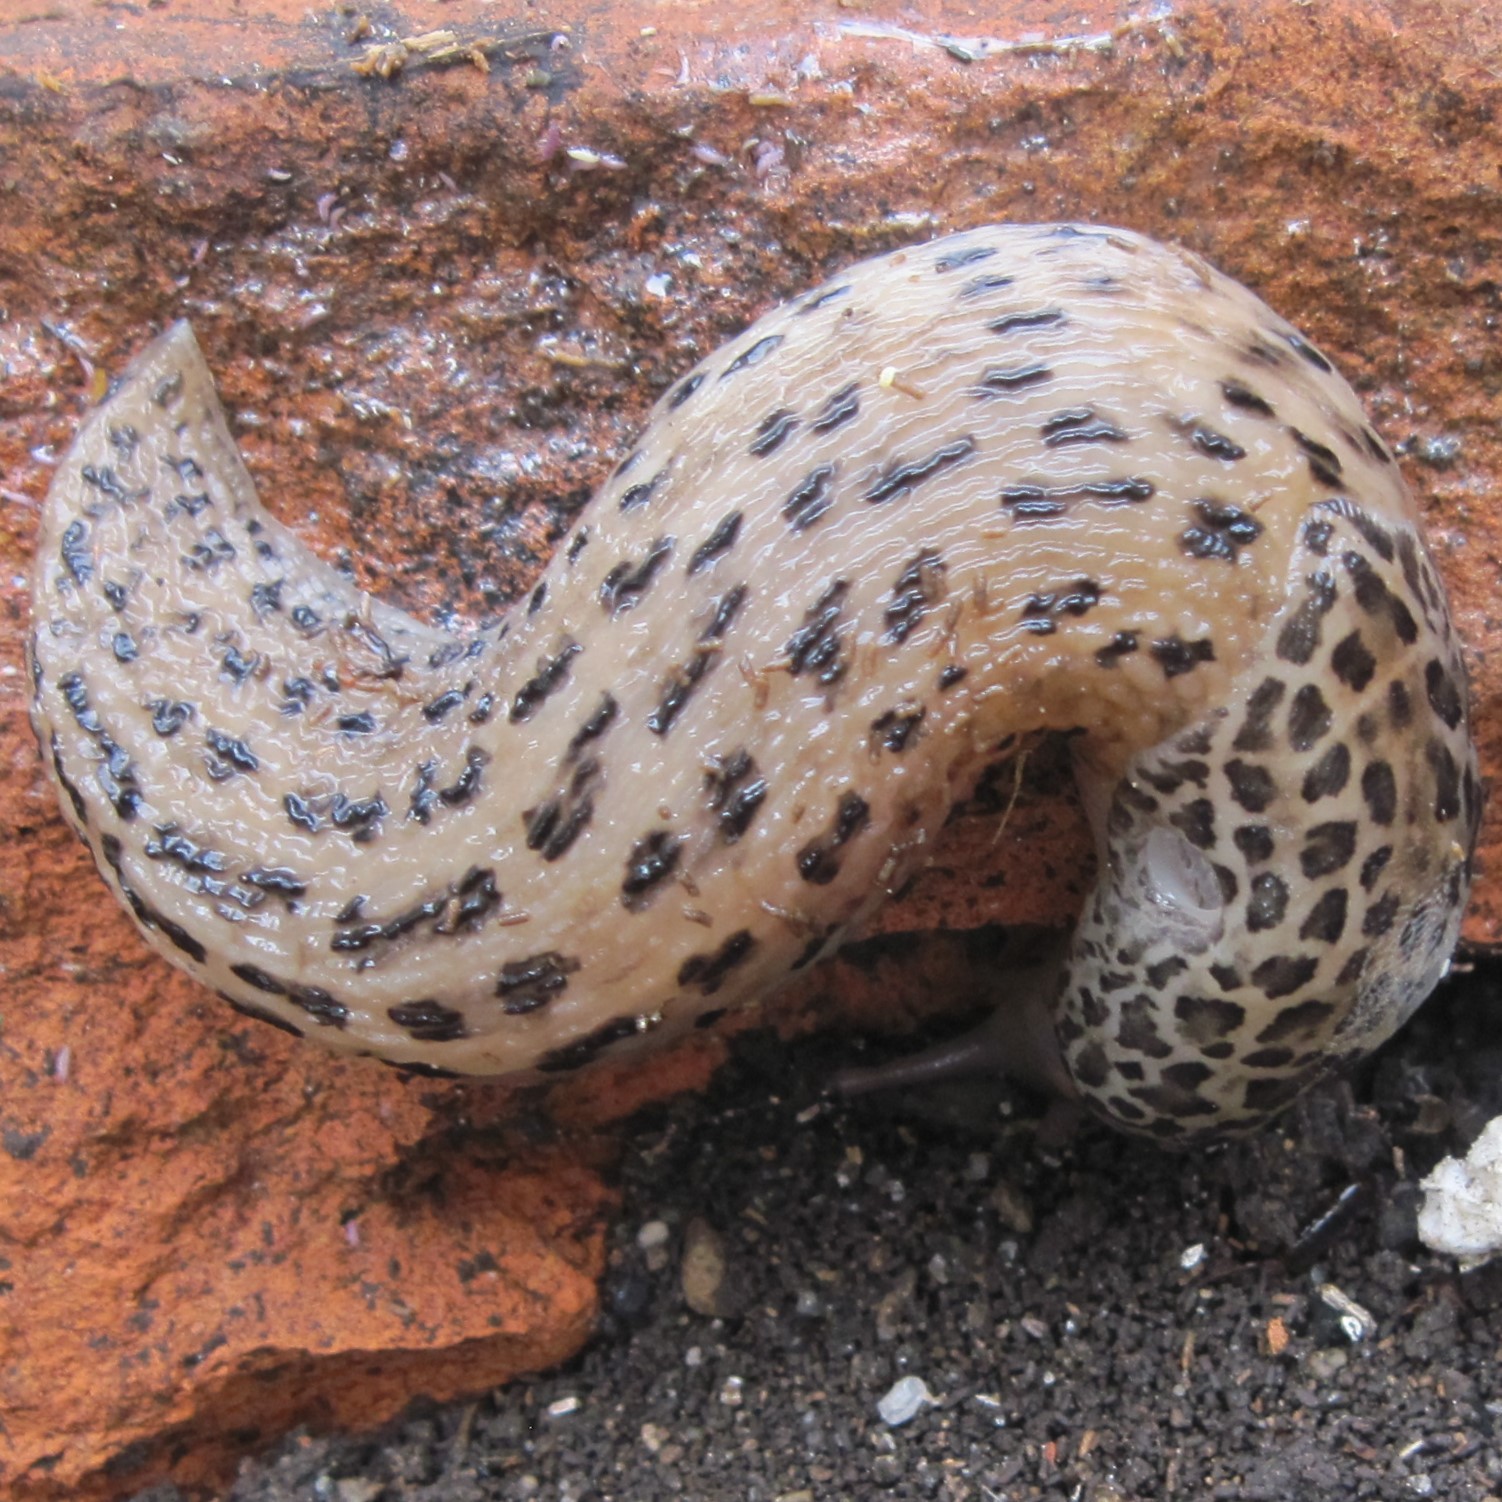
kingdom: Animalia
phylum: Mollusca
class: Gastropoda
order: Stylommatophora
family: Limacidae
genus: Limax
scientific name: Limax maximus
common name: Great grey slug
